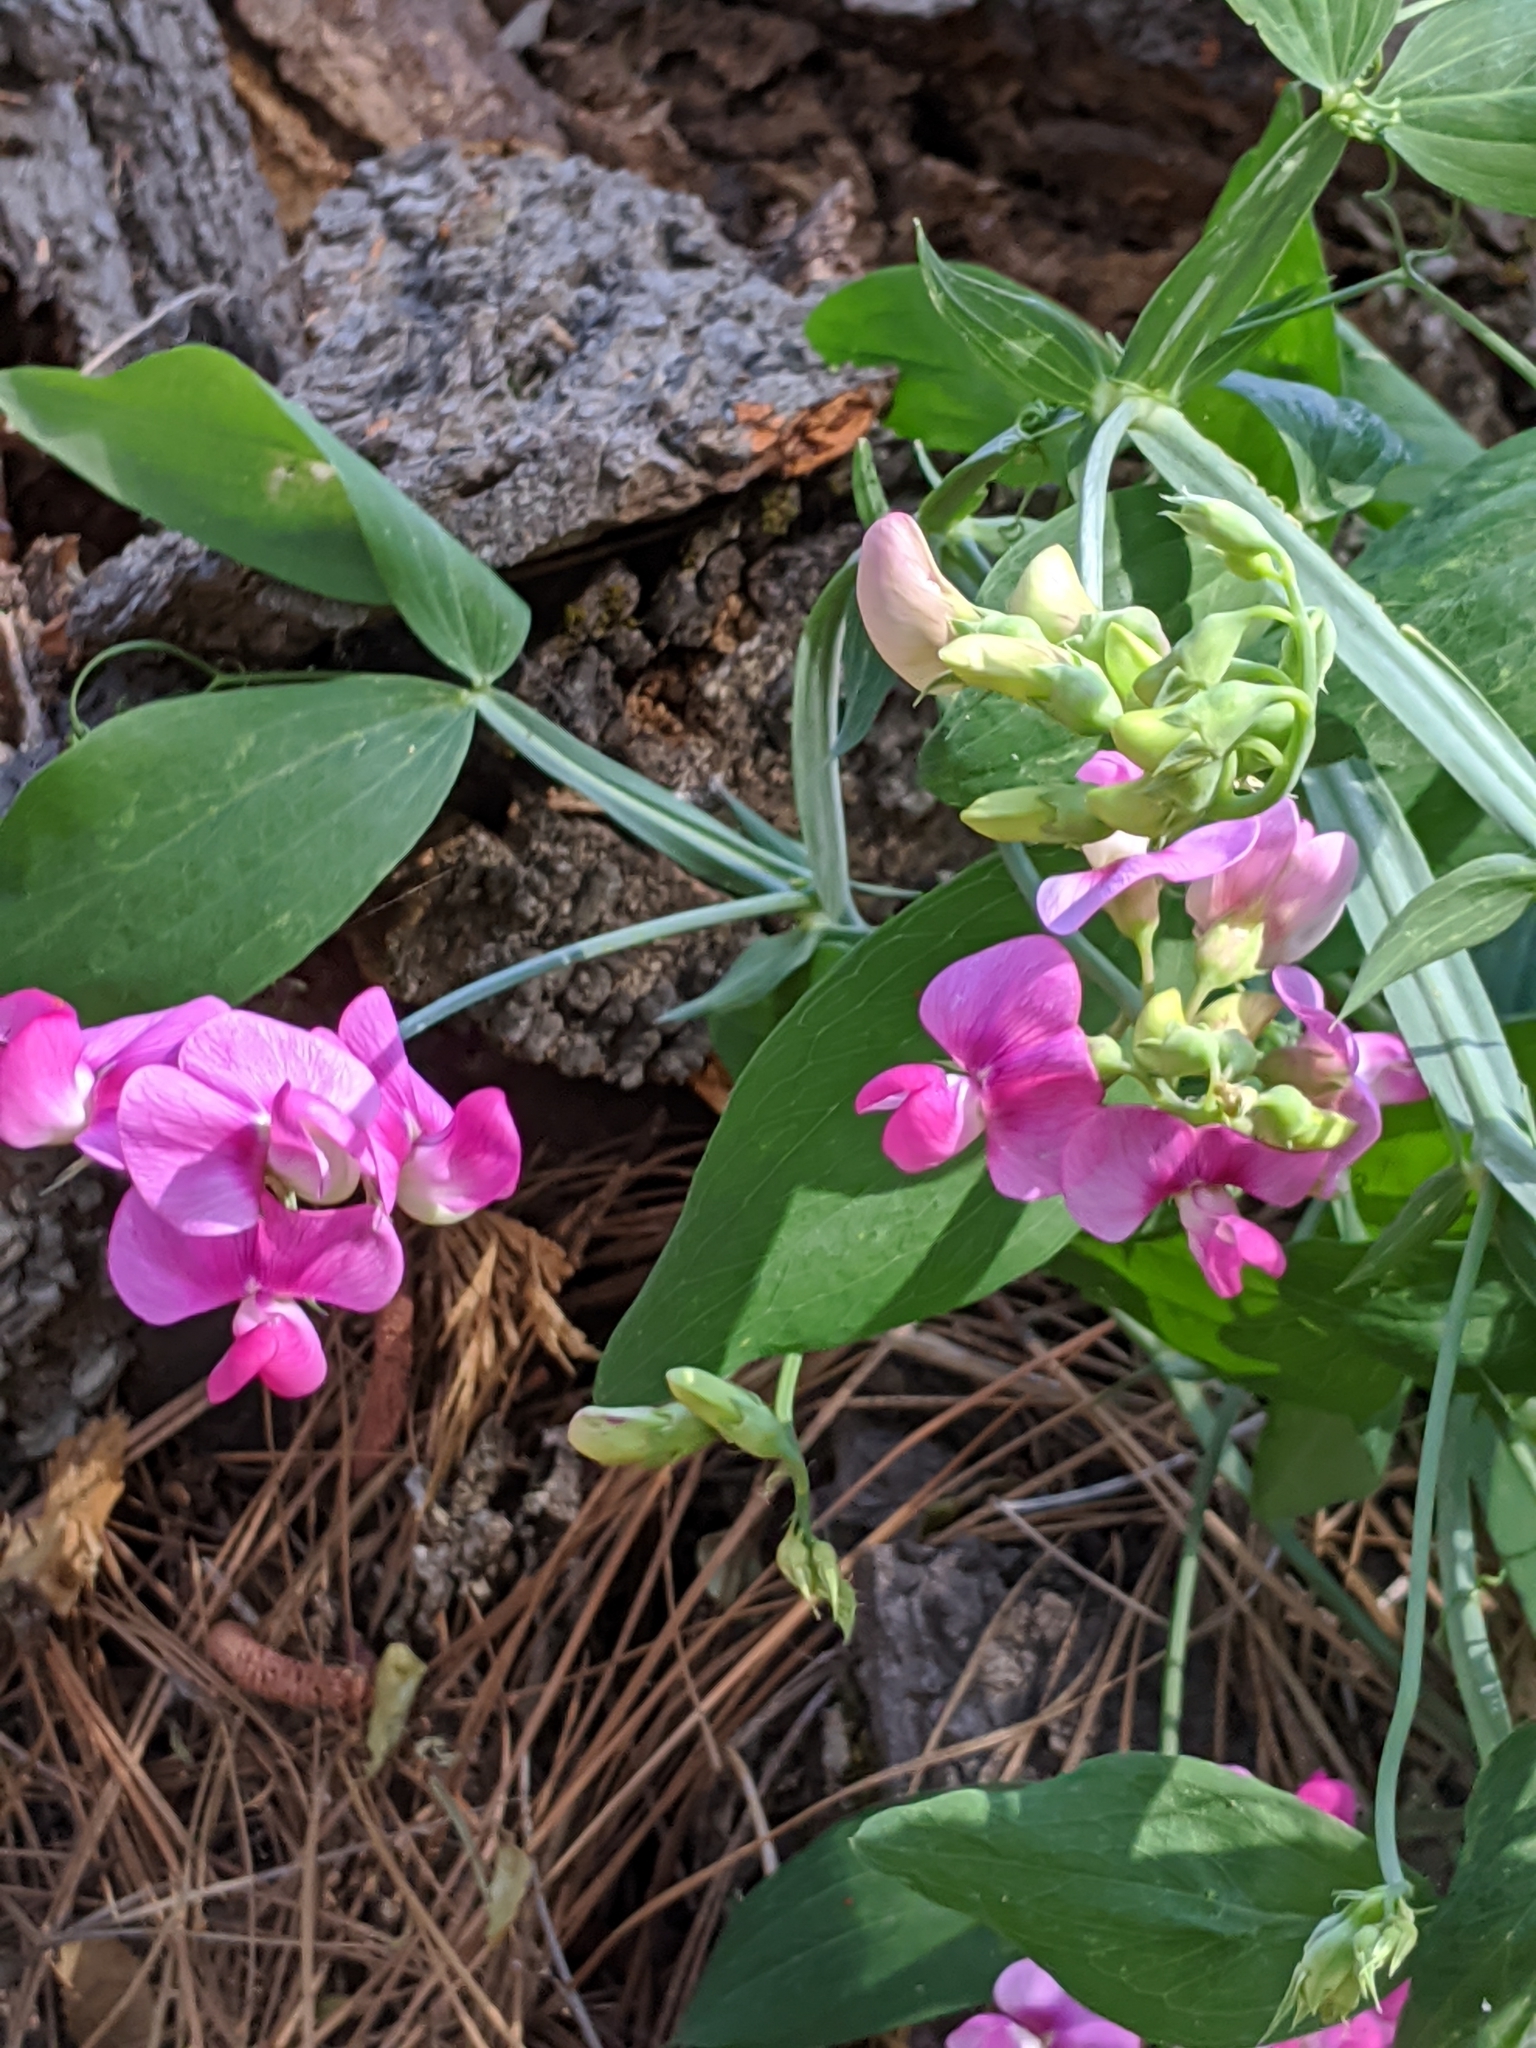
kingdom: Plantae
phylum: Tracheophyta
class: Magnoliopsida
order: Fabales
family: Fabaceae
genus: Lathyrus
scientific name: Lathyrus latifolius
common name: Perennial pea
